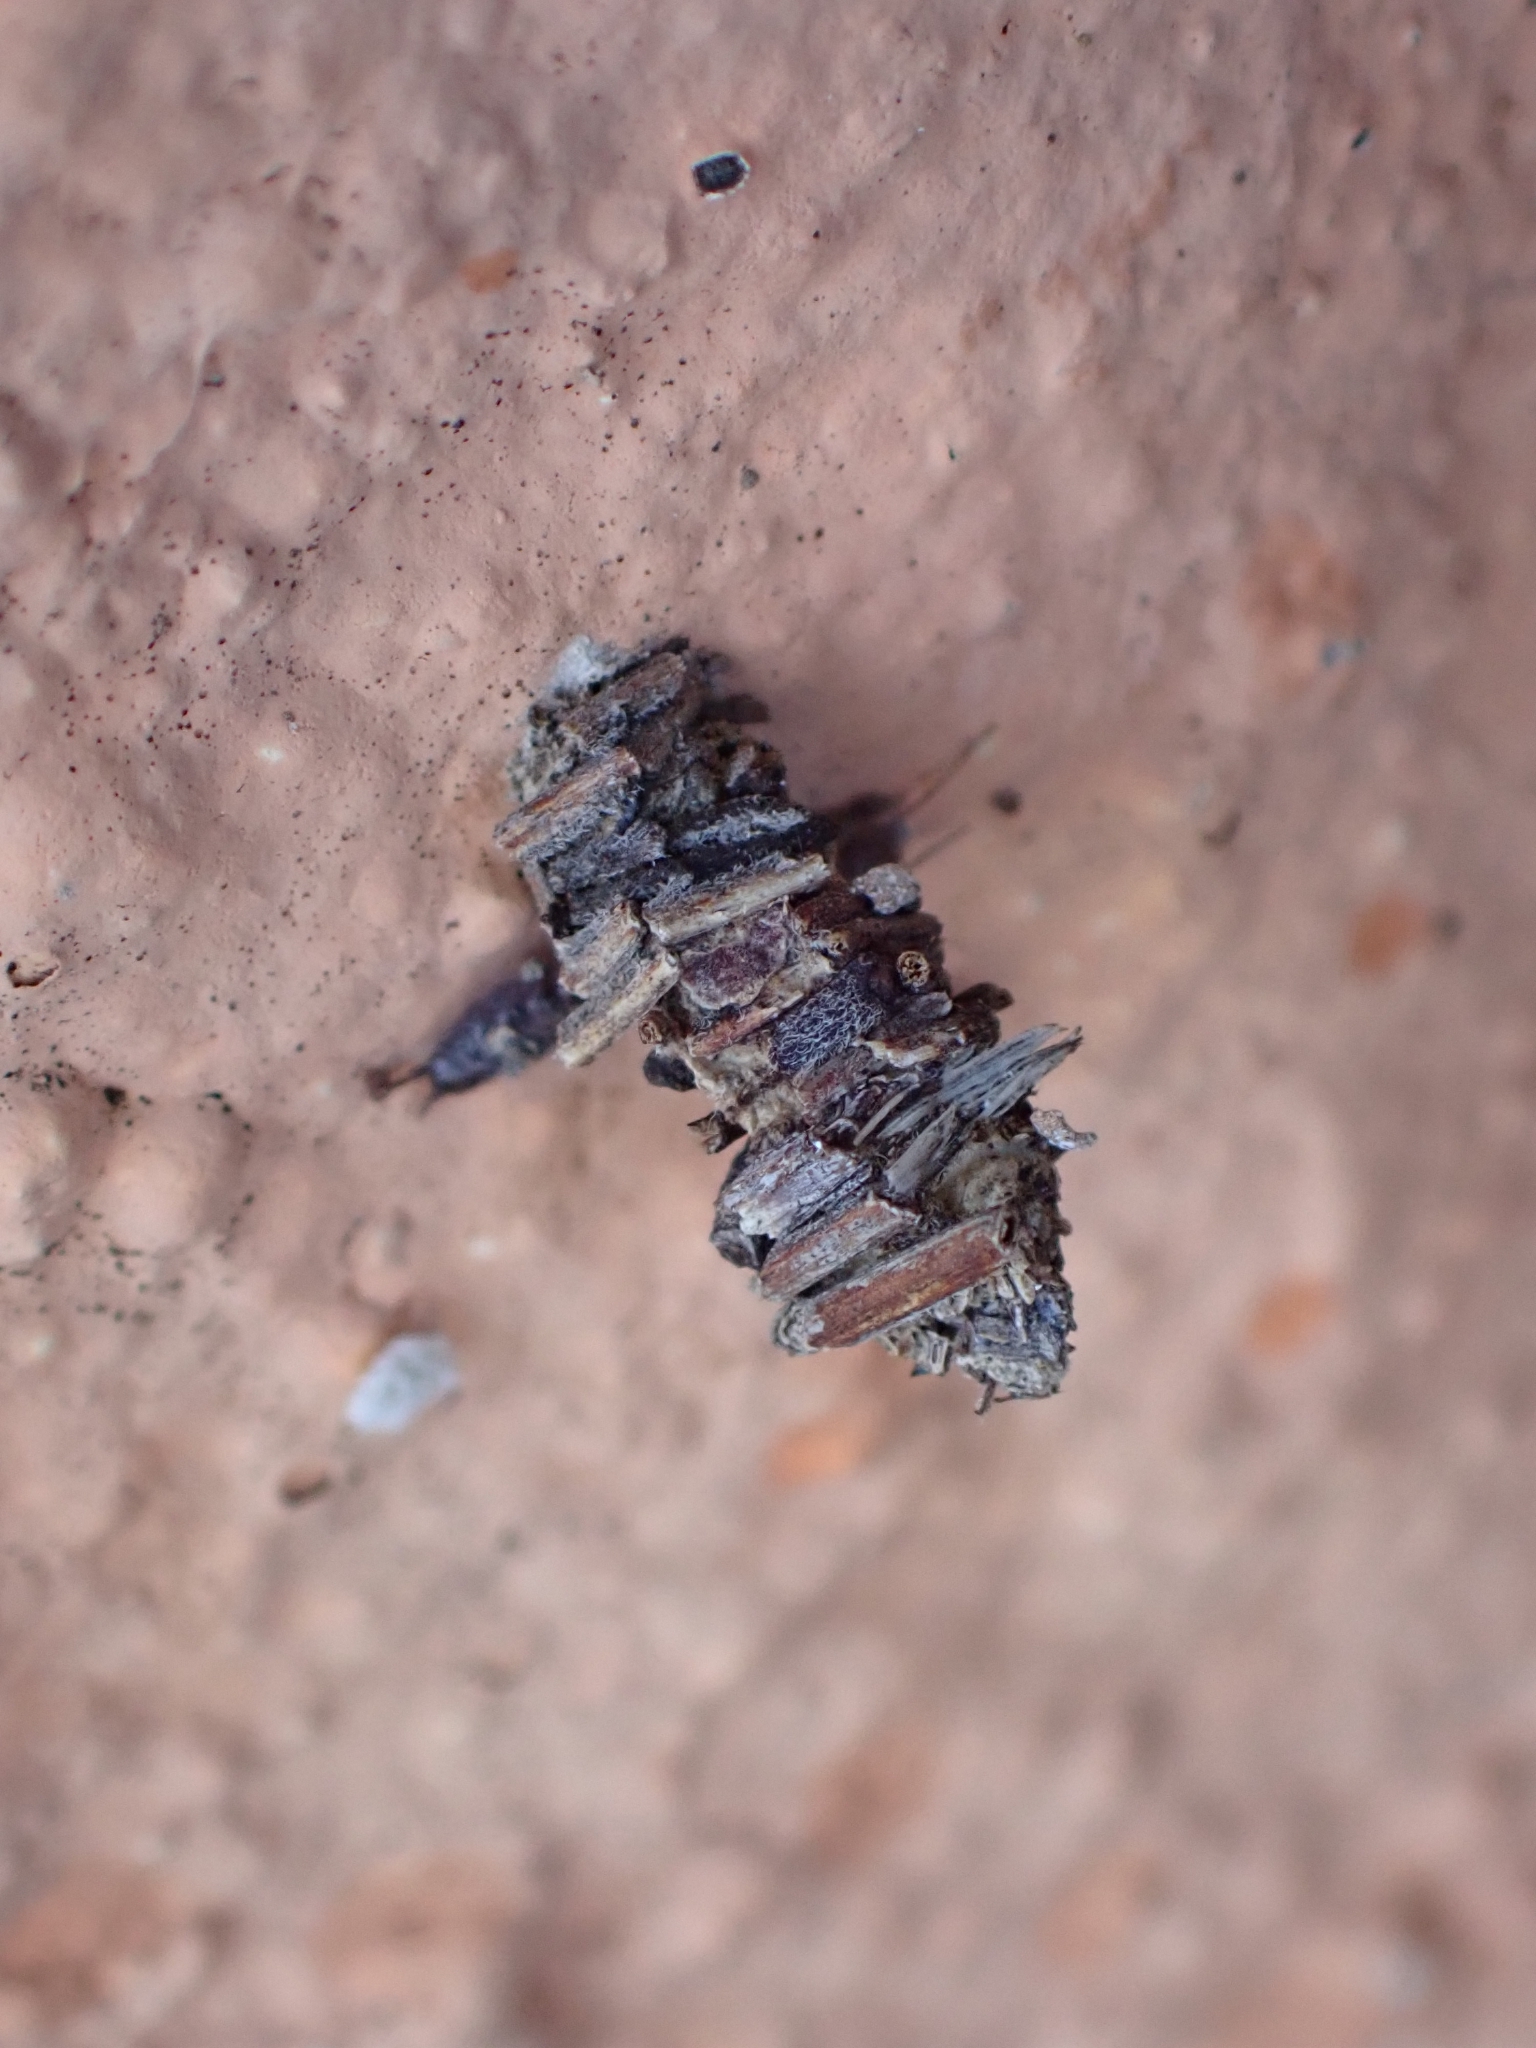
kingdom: Animalia
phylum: Arthropoda
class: Insecta
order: Lepidoptera
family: Psychidae
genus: Amicta
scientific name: Amicta cabrerai
